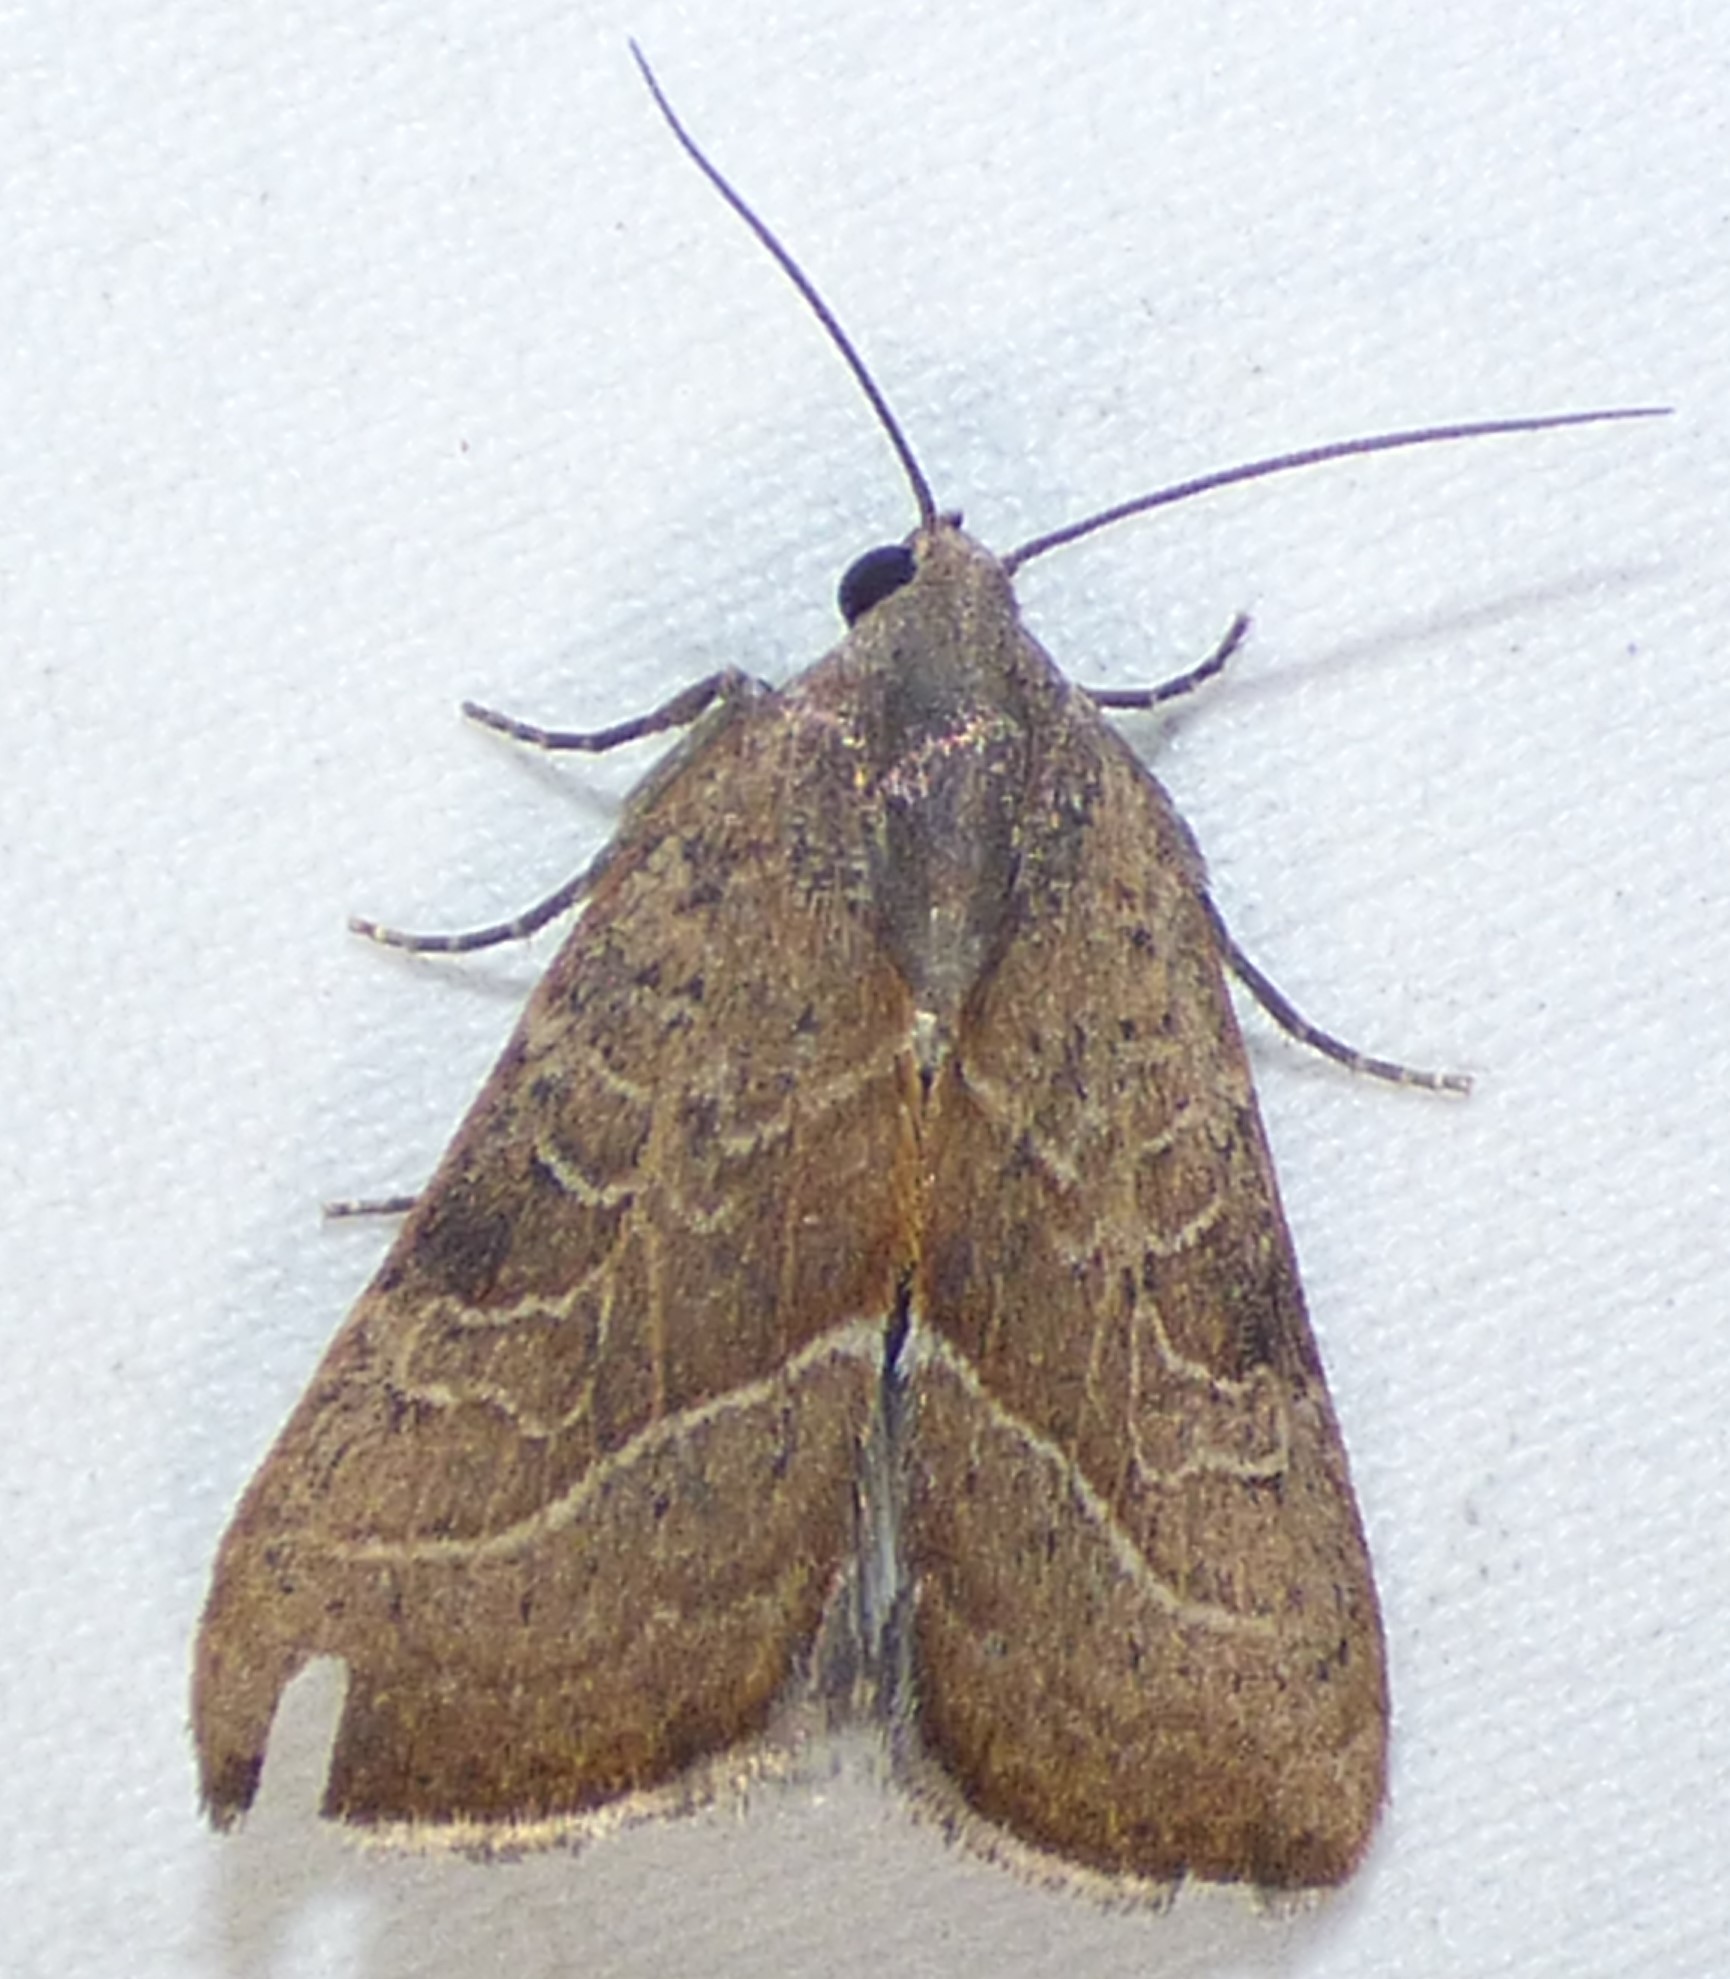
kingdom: Animalia
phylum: Arthropoda
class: Insecta
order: Lepidoptera
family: Noctuidae
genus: Galgula
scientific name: Galgula partita
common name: Wedgeling
